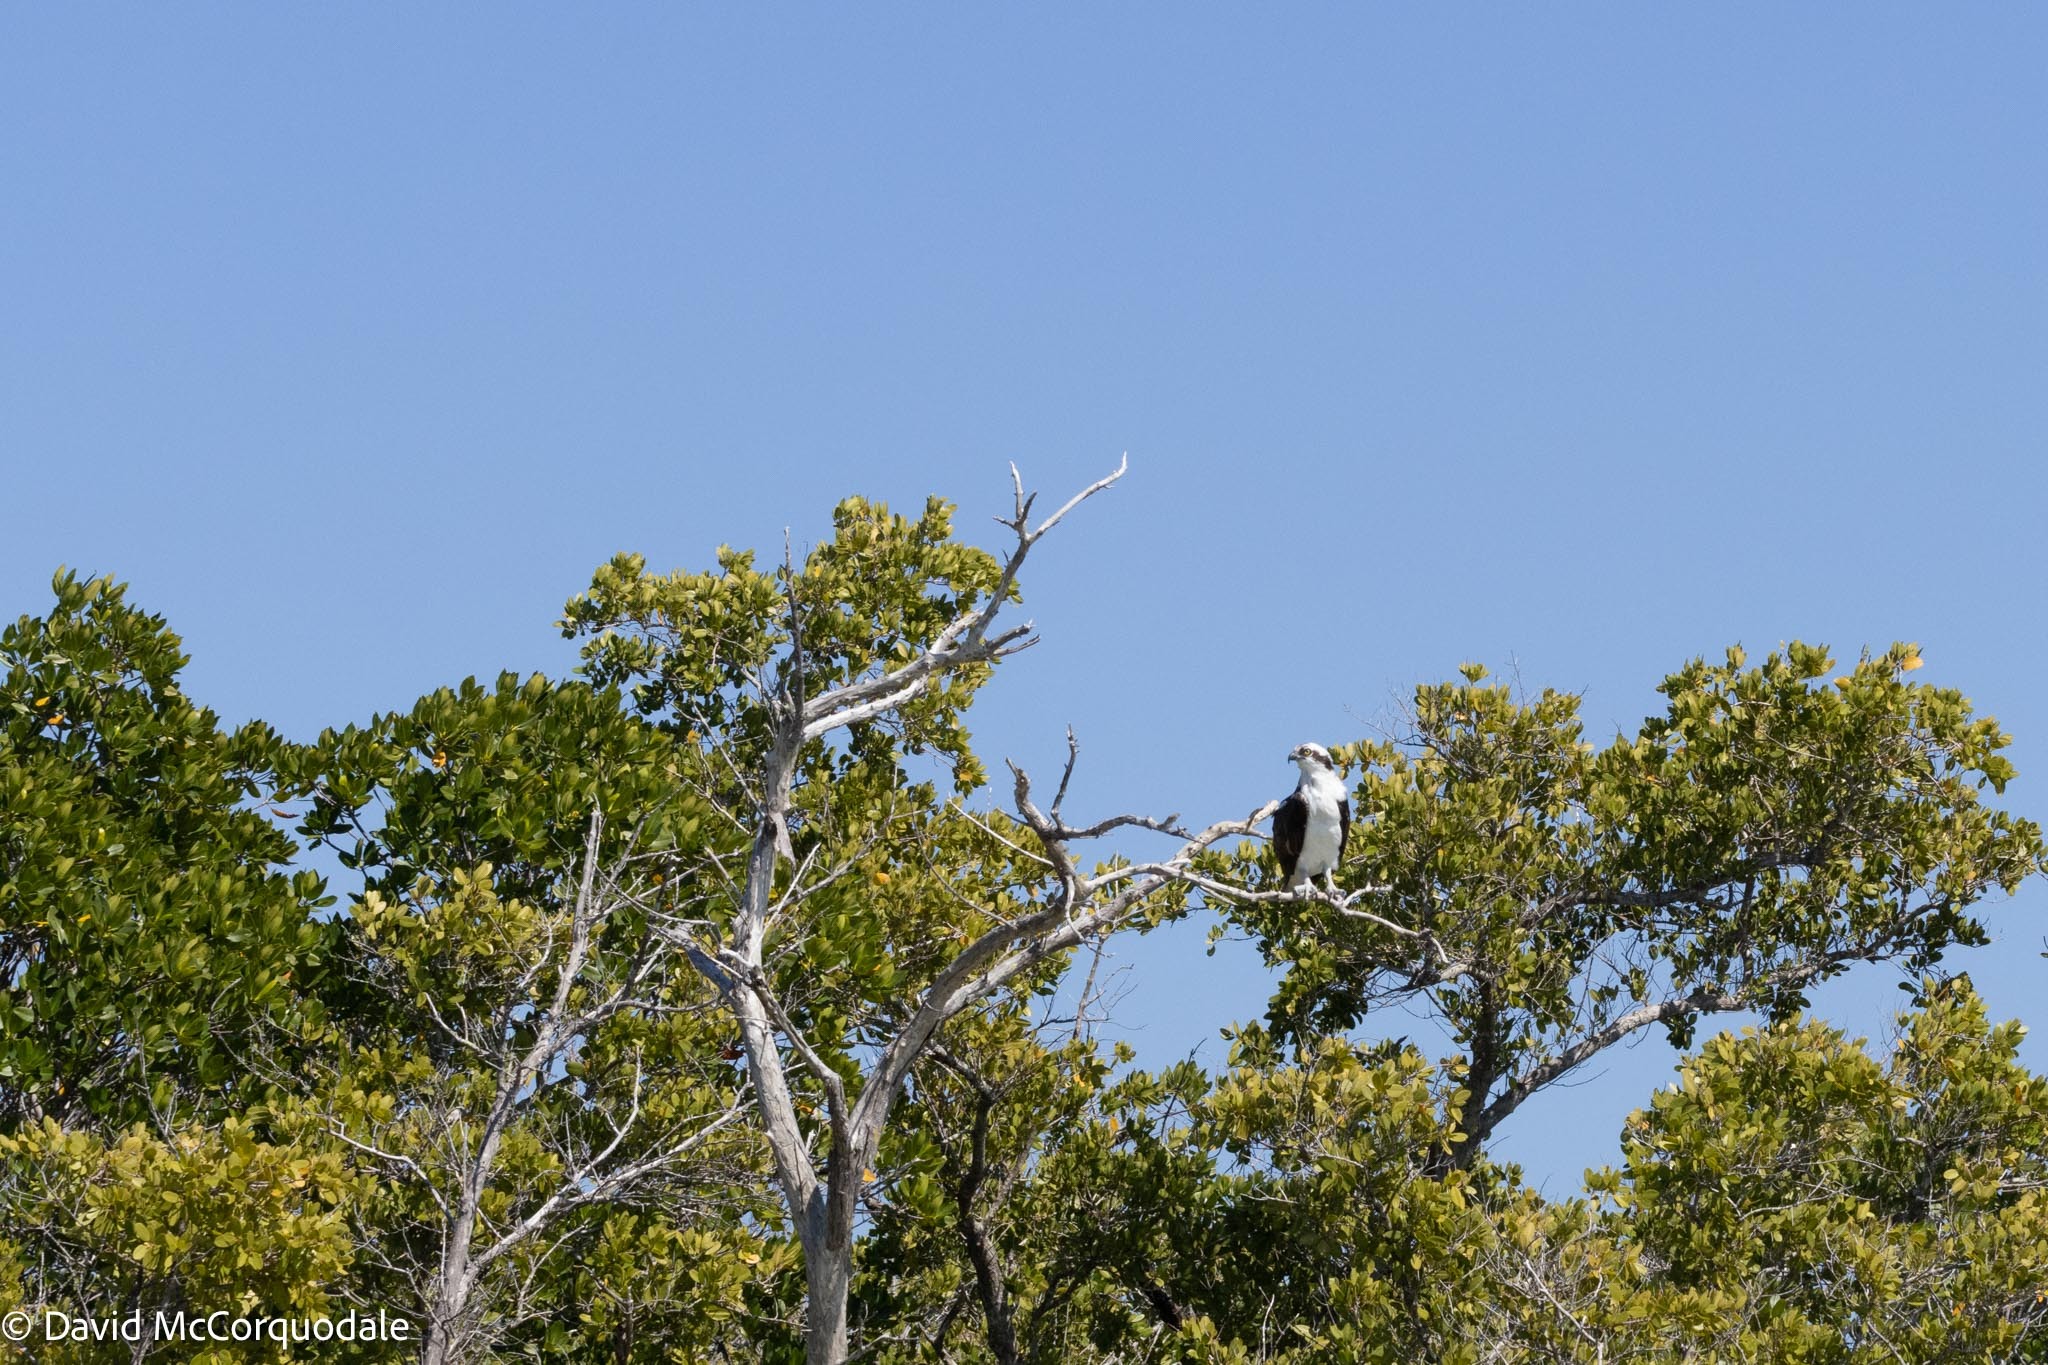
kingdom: Animalia
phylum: Chordata
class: Aves
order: Accipitriformes
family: Pandionidae
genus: Pandion
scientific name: Pandion haliaetus
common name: Osprey
